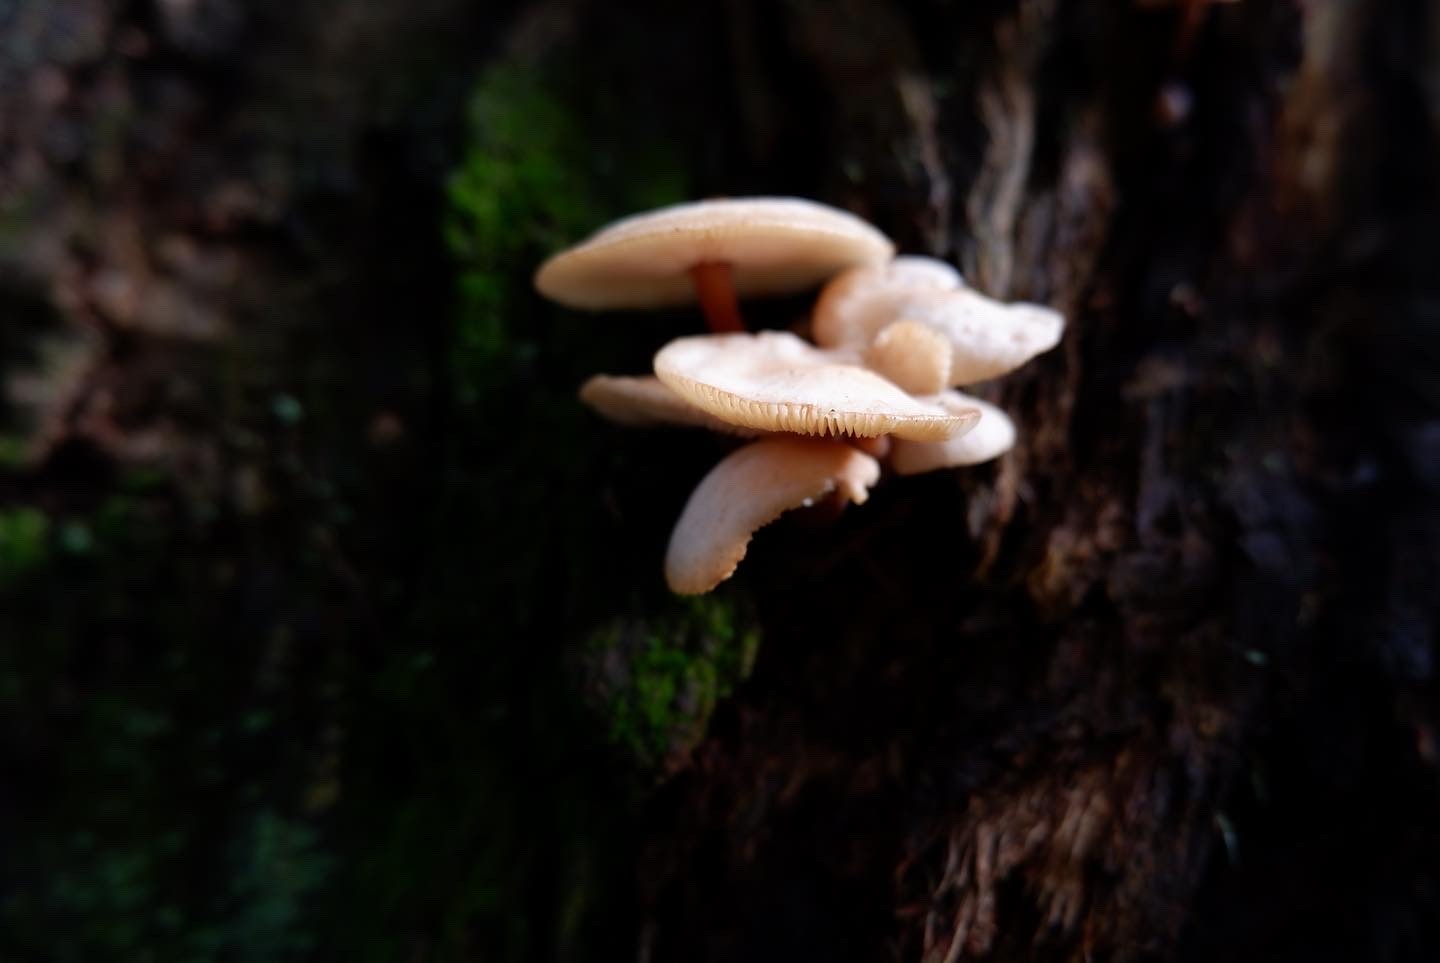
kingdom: Fungi
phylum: Basidiomycota
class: Agaricomycetes
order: Agaricales
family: Omphalotaceae
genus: Rhodocollybia
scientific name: Rhodocollybia
